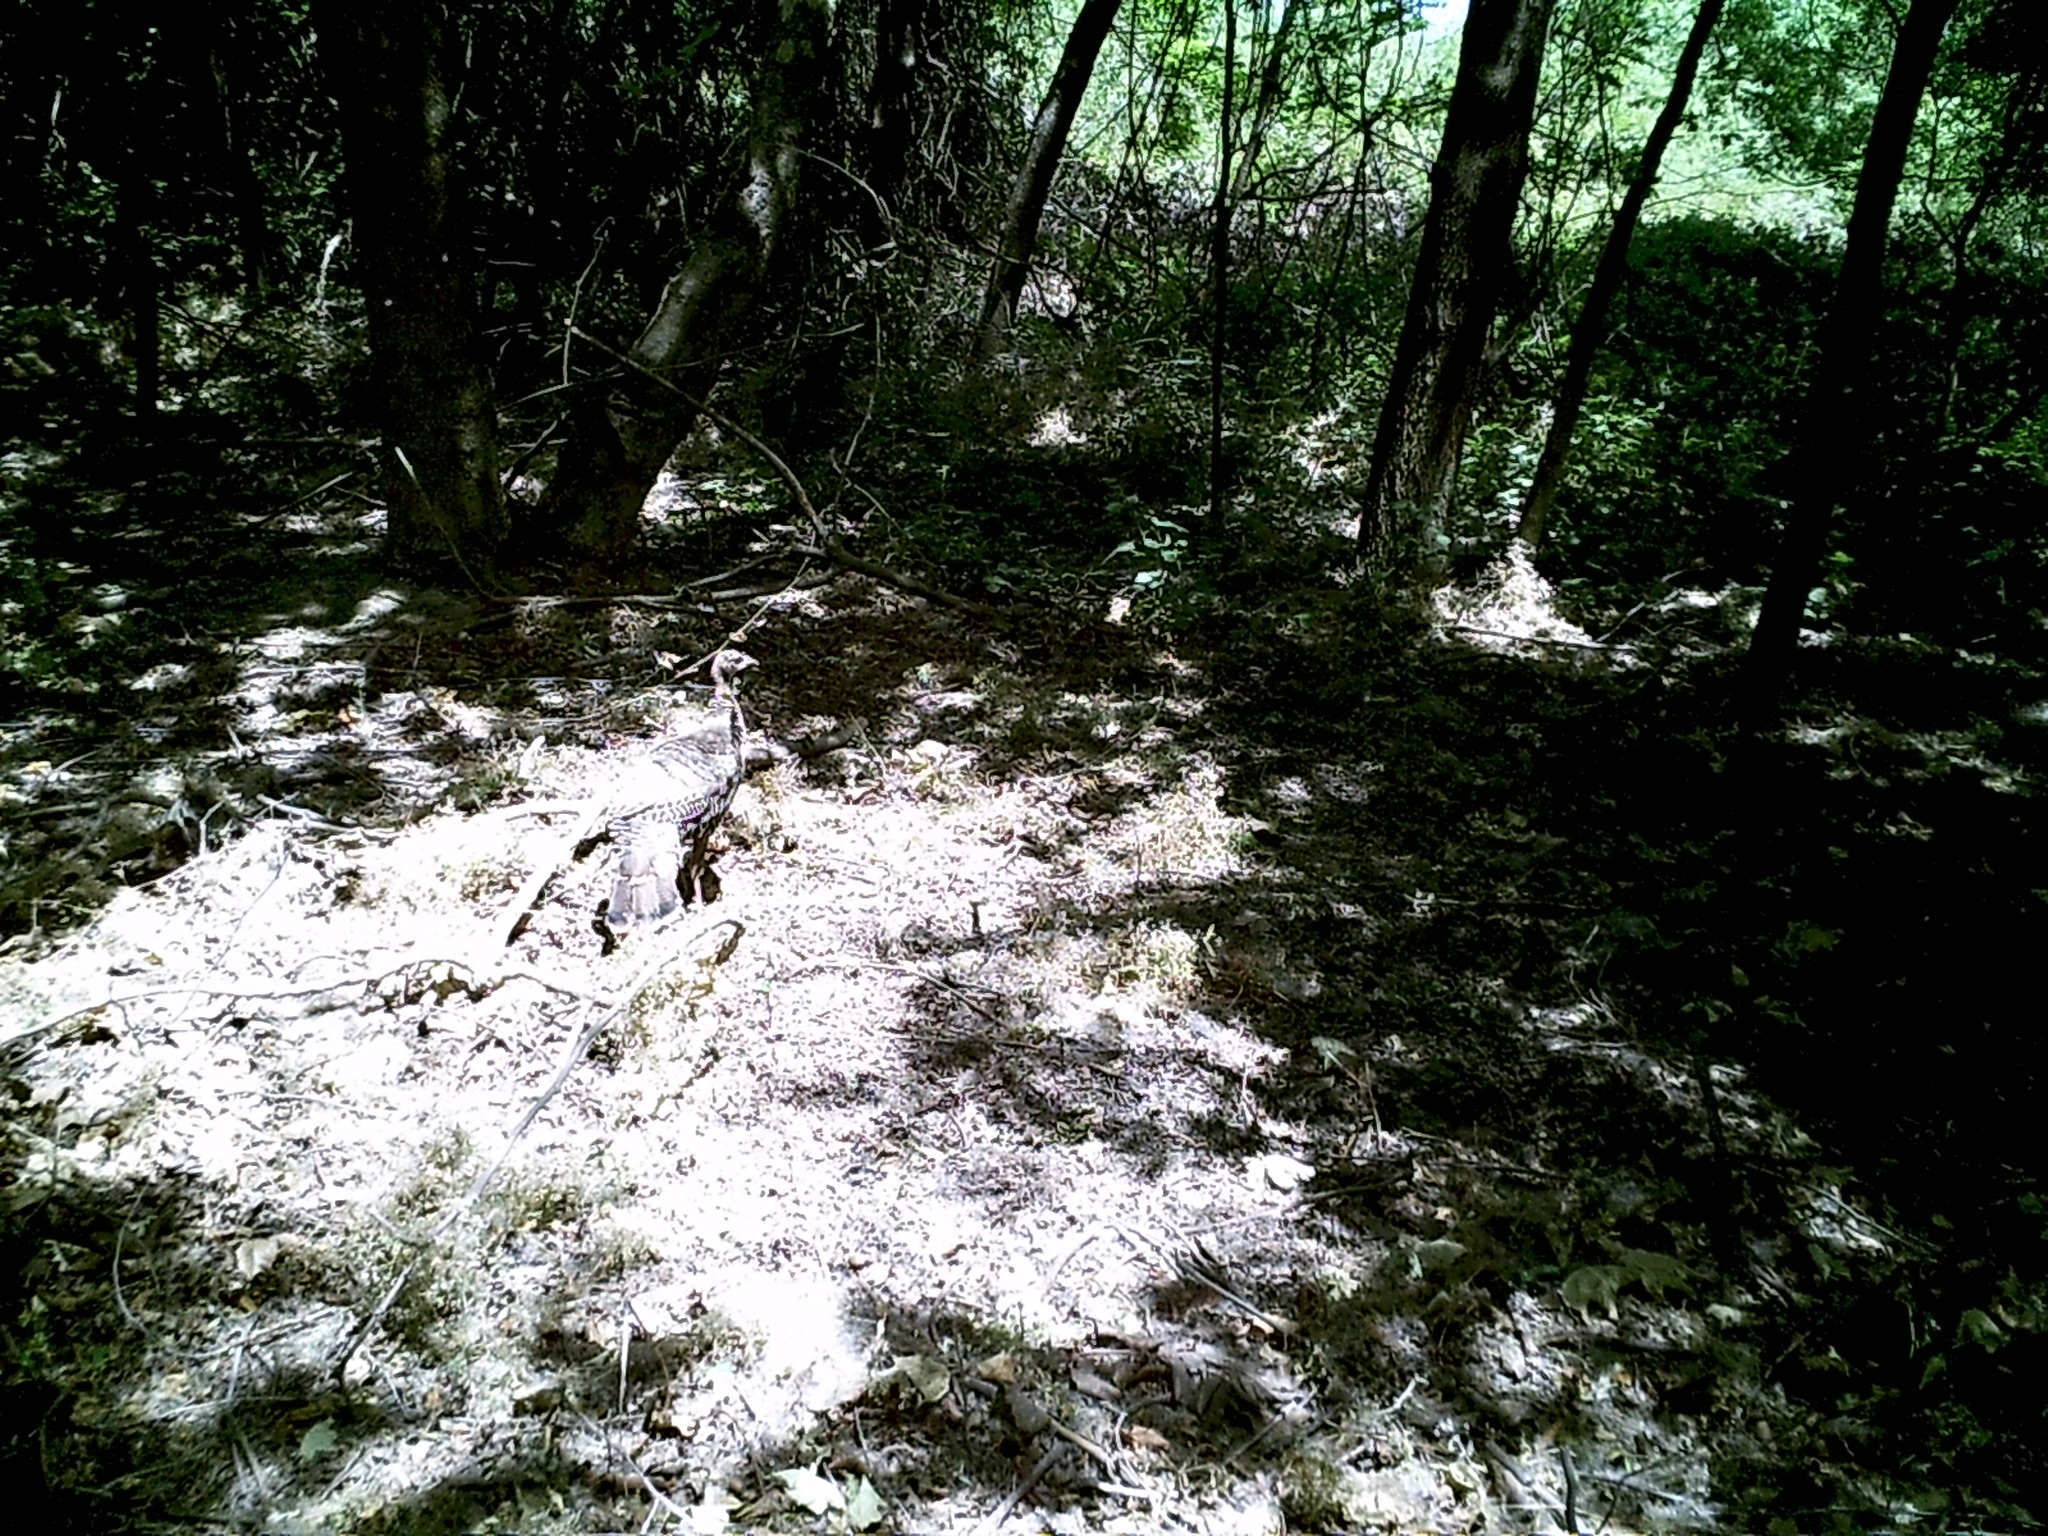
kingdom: Animalia
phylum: Chordata
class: Aves
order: Galliformes
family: Phasianidae
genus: Meleagris
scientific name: Meleagris gallopavo
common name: Wild turkey
